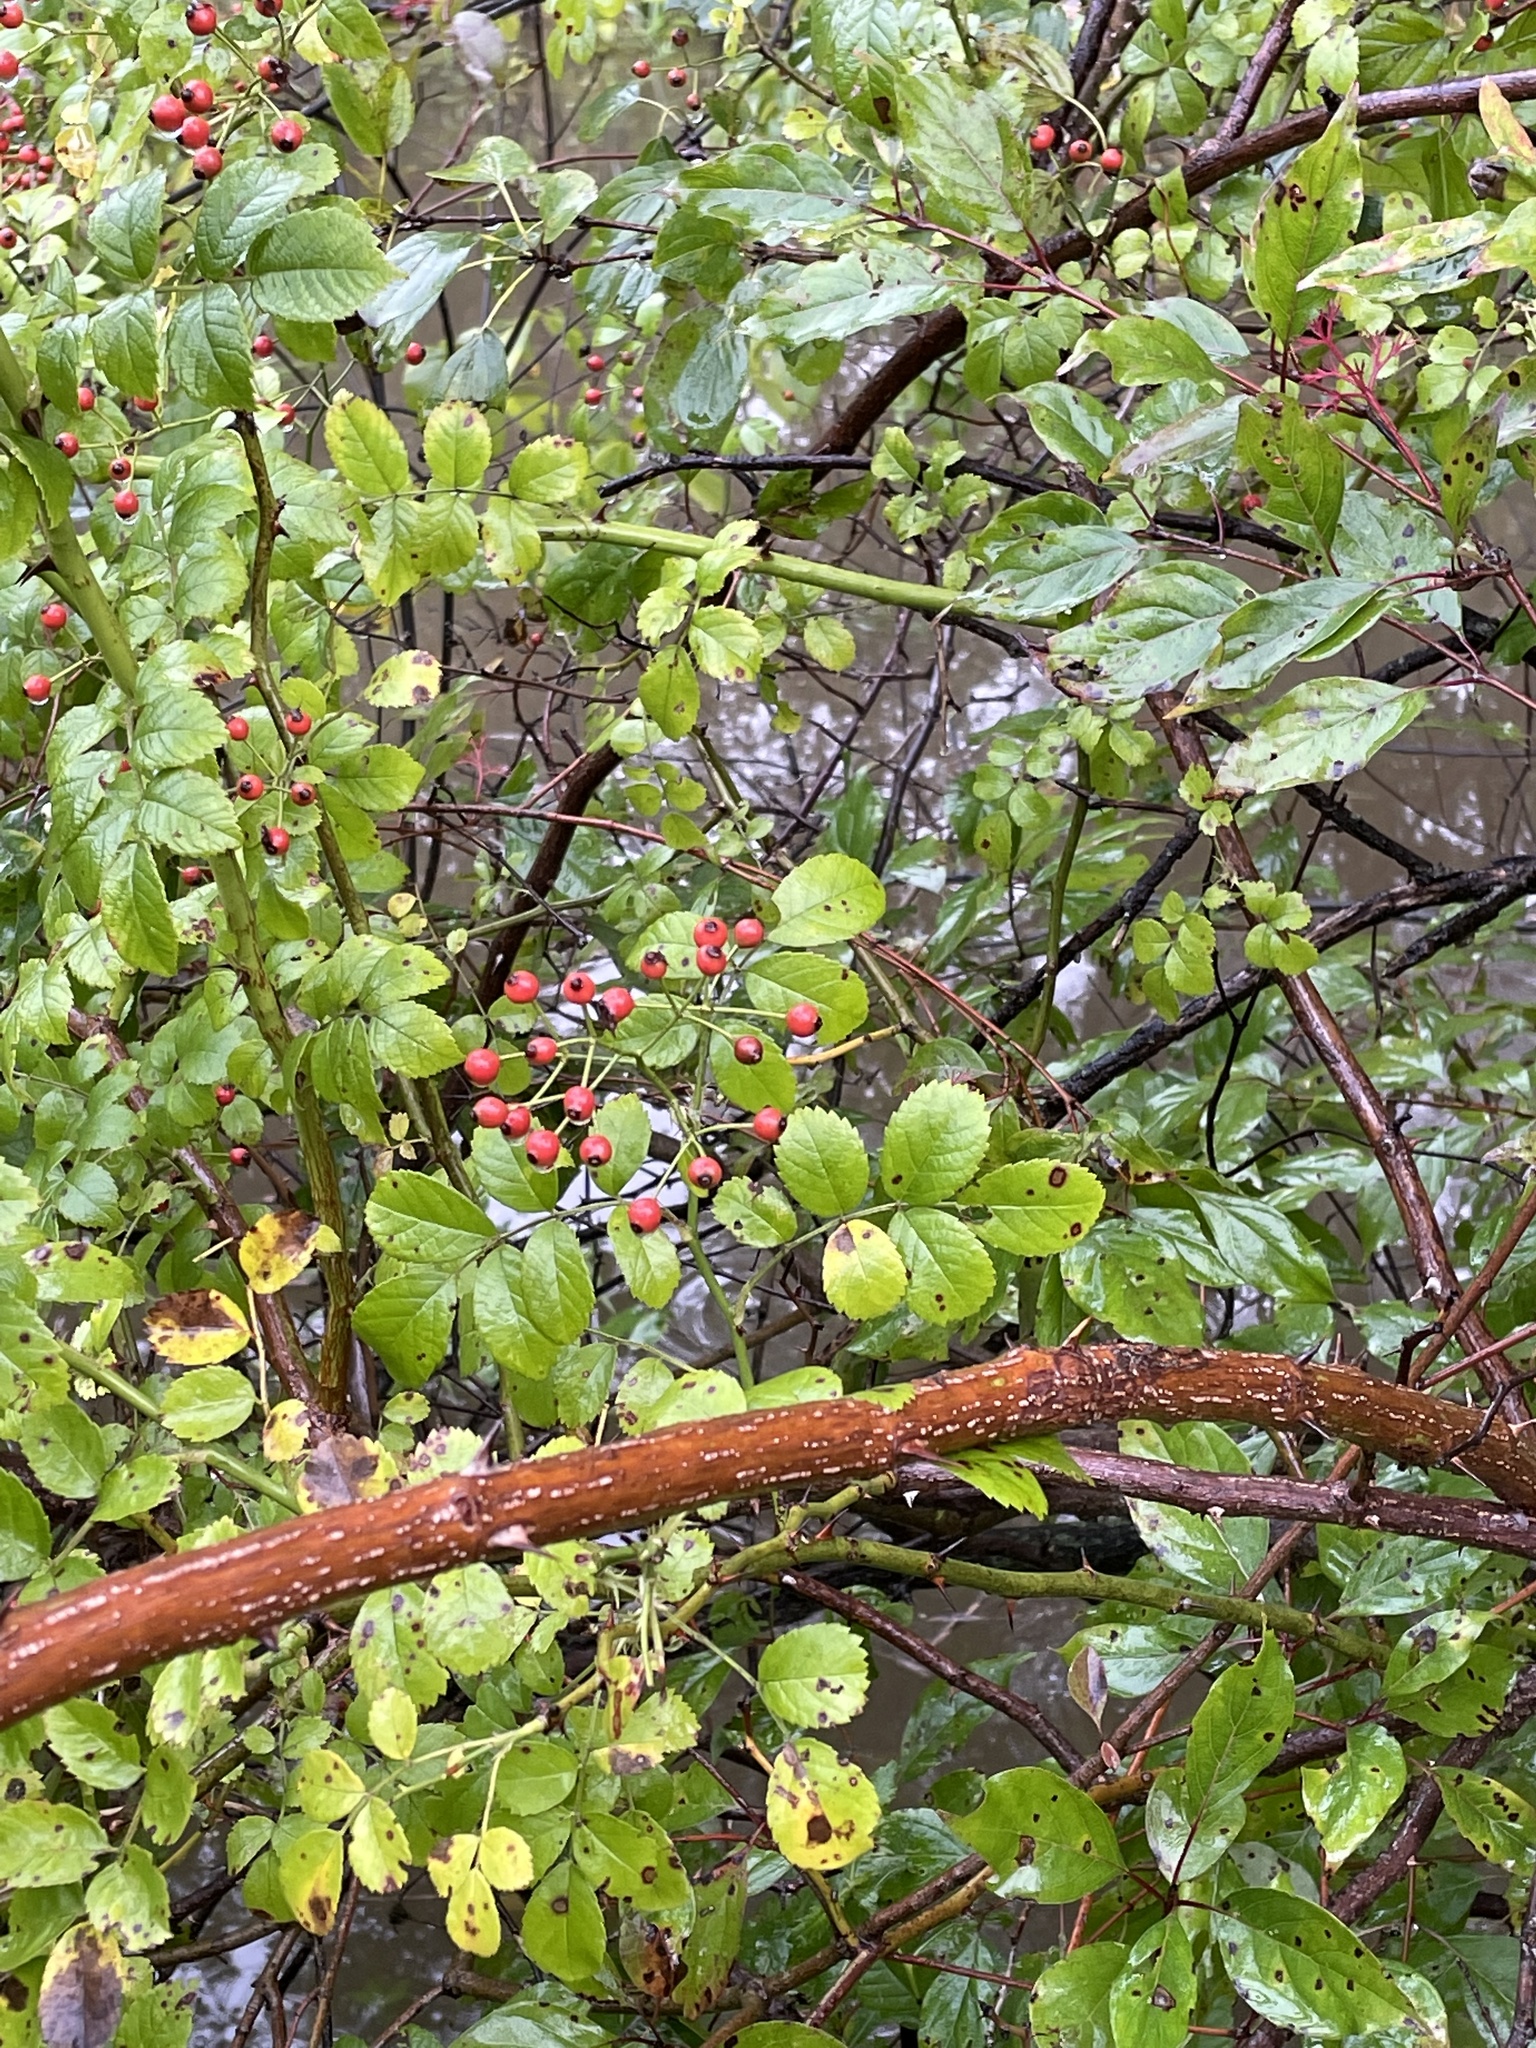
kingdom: Plantae
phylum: Tracheophyta
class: Magnoliopsida
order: Rosales
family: Rosaceae
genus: Rosa
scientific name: Rosa multiflora
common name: Multiflora rose
